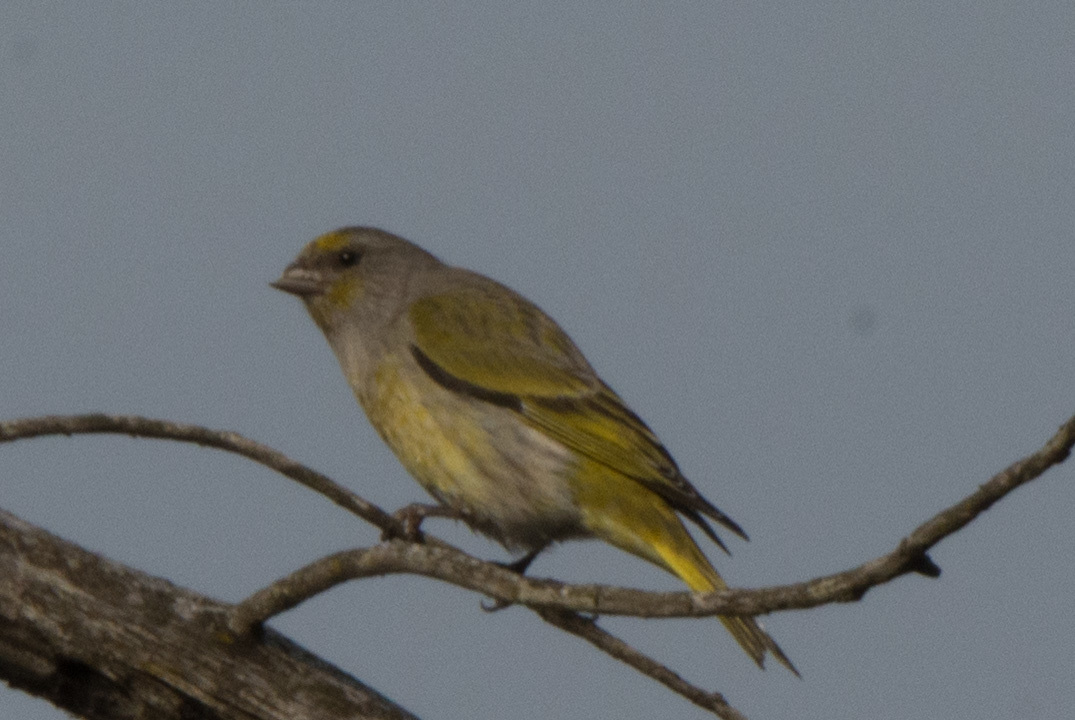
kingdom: Animalia
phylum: Chordata
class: Aves
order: Passeriformes
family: Fringillidae
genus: Serinus
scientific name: Serinus canicollis
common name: Cape canary
